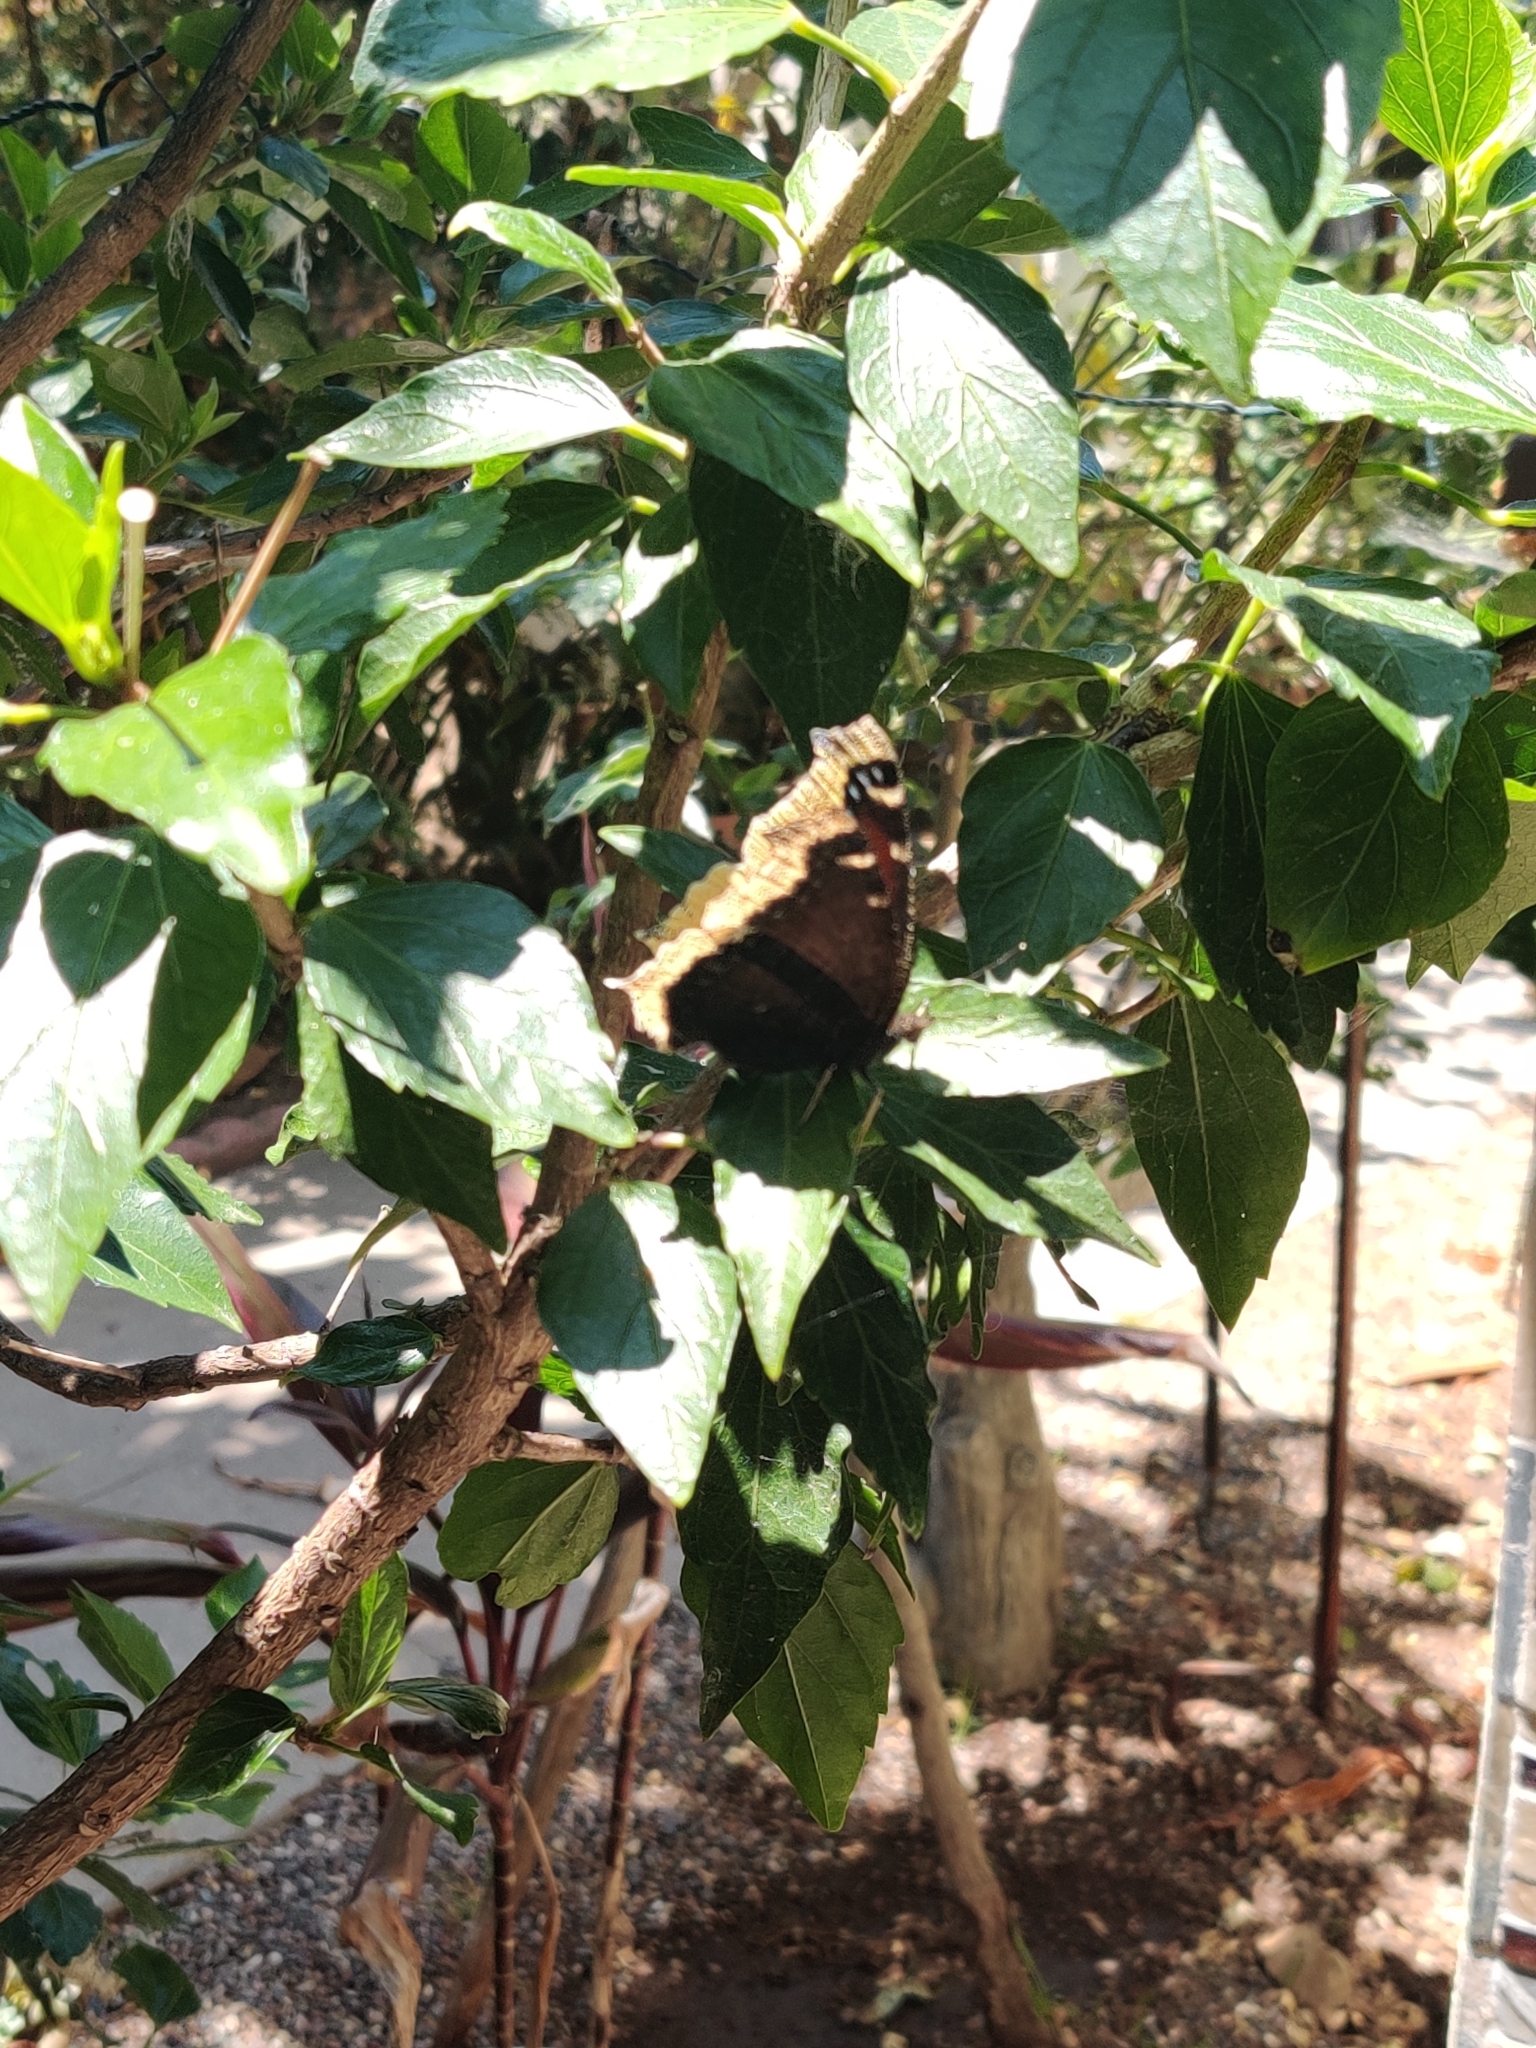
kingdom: Animalia
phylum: Arthropoda
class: Insecta
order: Lepidoptera
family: Nymphalidae
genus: Nymphalis
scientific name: Nymphalis antiopa
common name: Camberwell beauty
